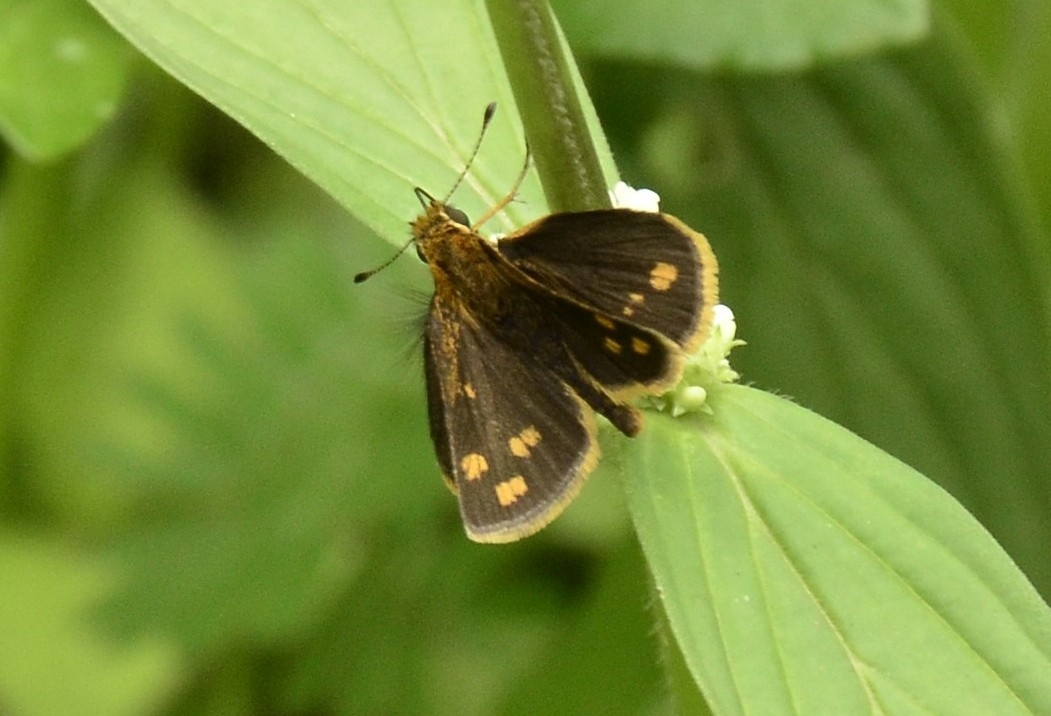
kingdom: Animalia
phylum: Arthropoda
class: Insecta
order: Lepidoptera
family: Hesperiidae
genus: Taractrocera
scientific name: Taractrocera ceramas
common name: Tamil grass dart
